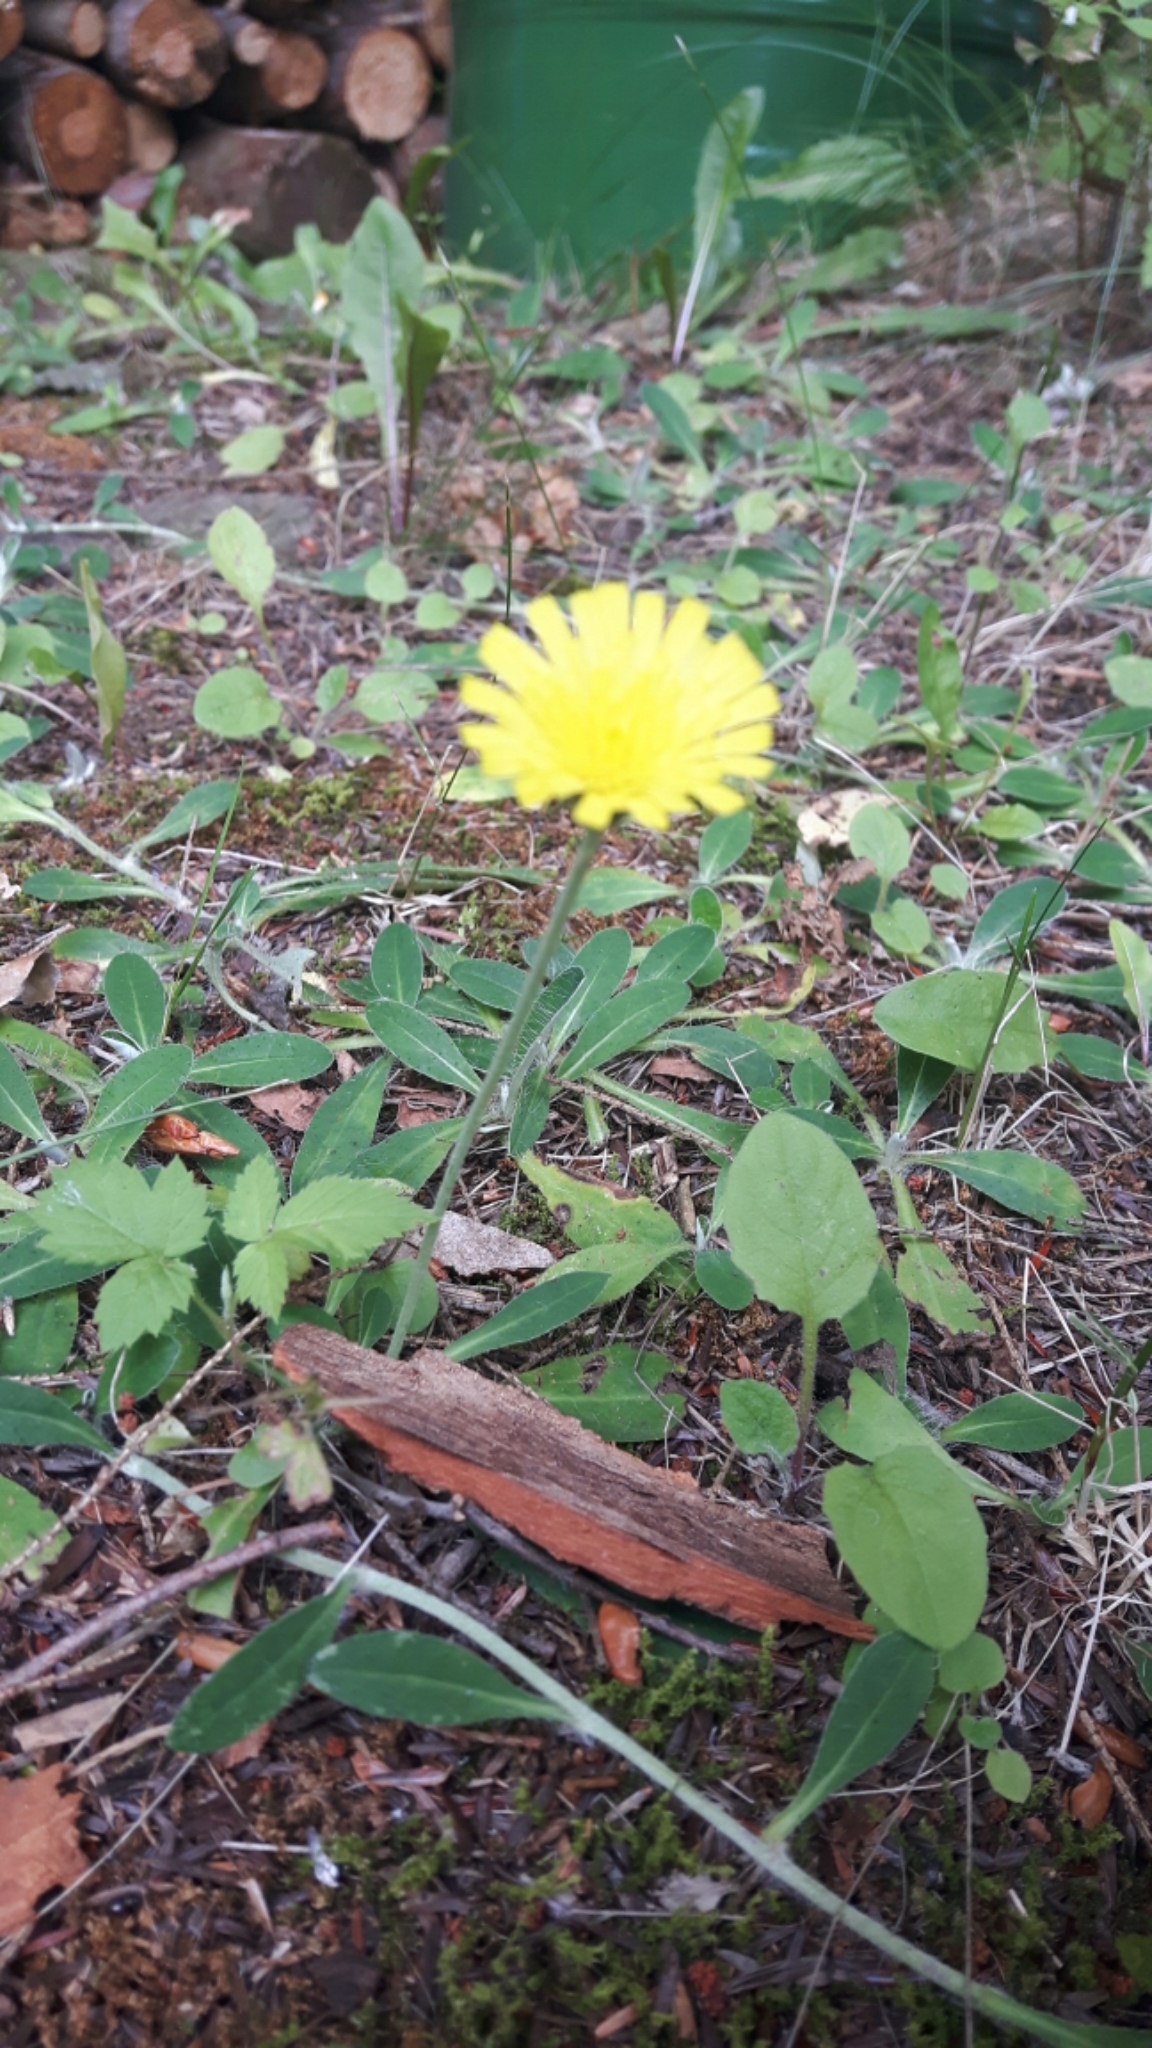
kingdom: Plantae
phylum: Tracheophyta
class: Magnoliopsida
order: Asterales
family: Asteraceae
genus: Pilosella
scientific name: Pilosella officinarum
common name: Mouse-ear hawkweed
